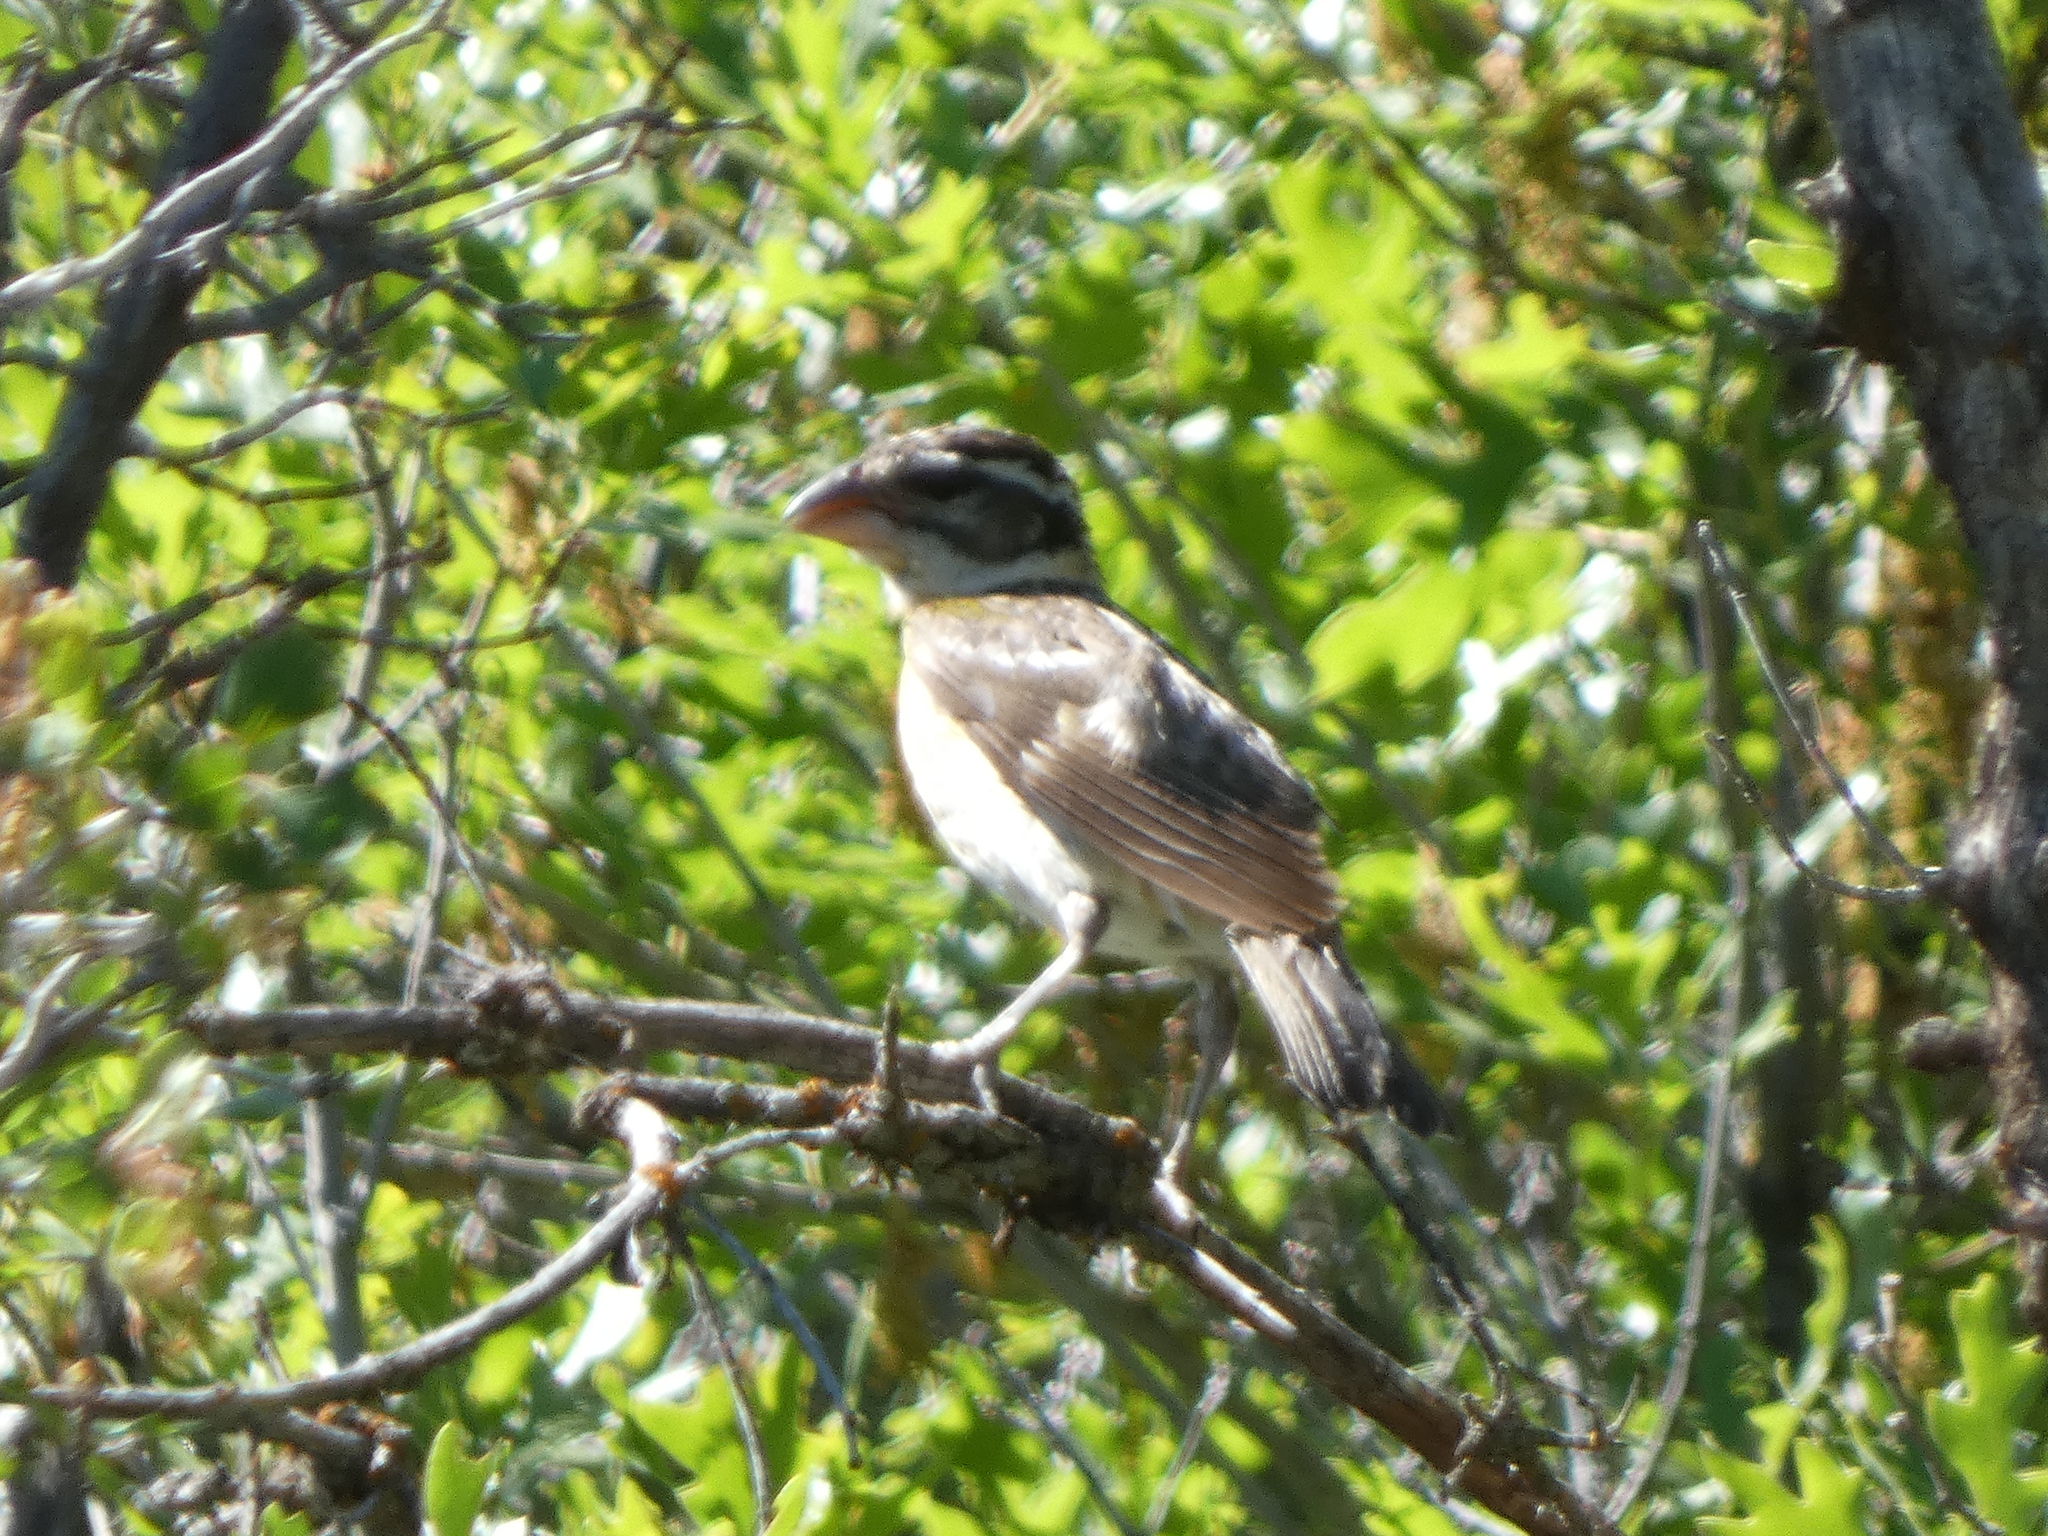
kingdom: Animalia
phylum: Chordata
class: Aves
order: Passeriformes
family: Cardinalidae
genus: Pheucticus
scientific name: Pheucticus melanocephalus
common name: Black-headed grosbeak
